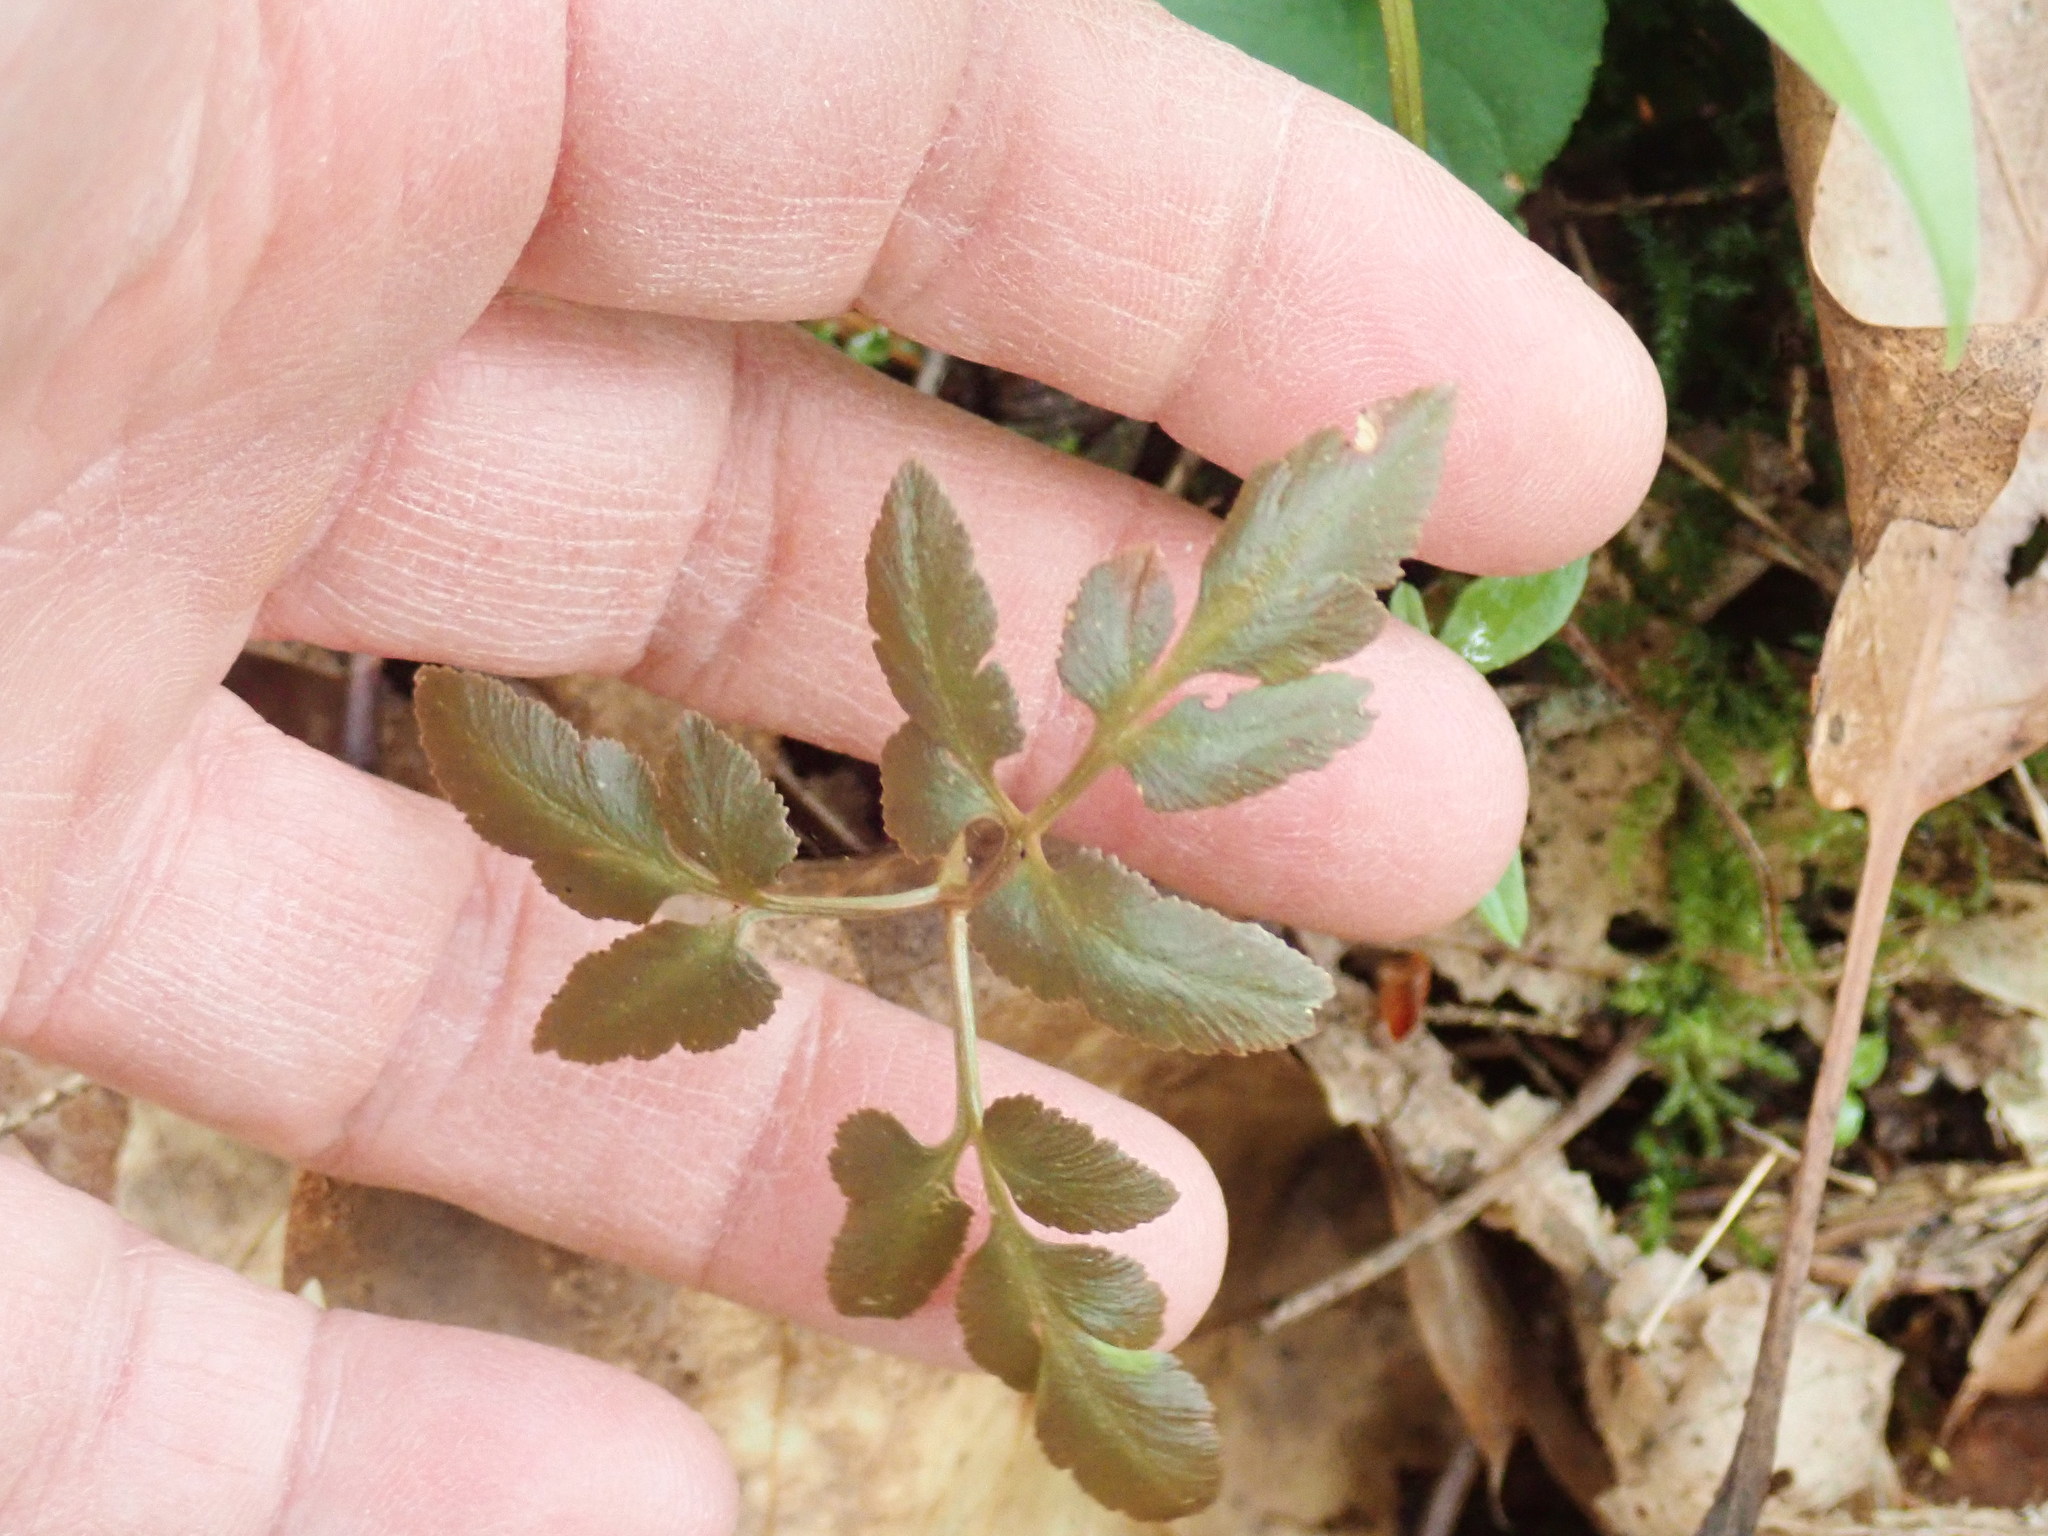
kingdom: Plantae
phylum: Tracheophyta
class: Polypodiopsida
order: Ophioglossales
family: Ophioglossaceae
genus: Sceptridium
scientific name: Sceptridium dissectum
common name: Cut-leaved grapefern
